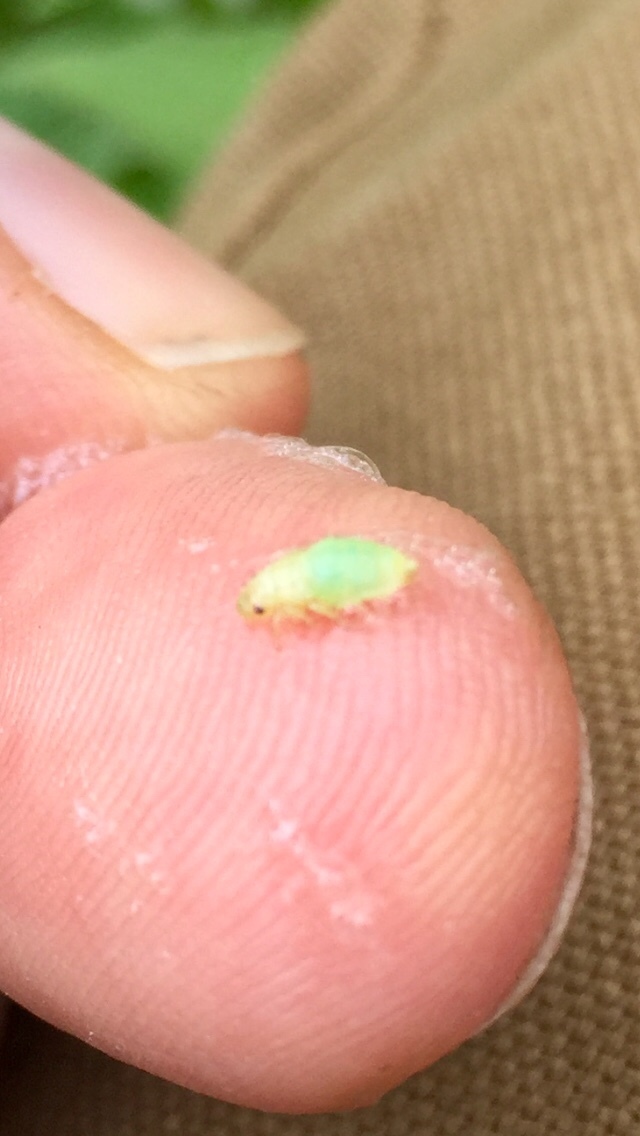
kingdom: Animalia
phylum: Arthropoda
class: Insecta
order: Hemiptera
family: Aphrophoridae
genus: Philaenus
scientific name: Philaenus spumarius
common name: Meadow spittlebug
